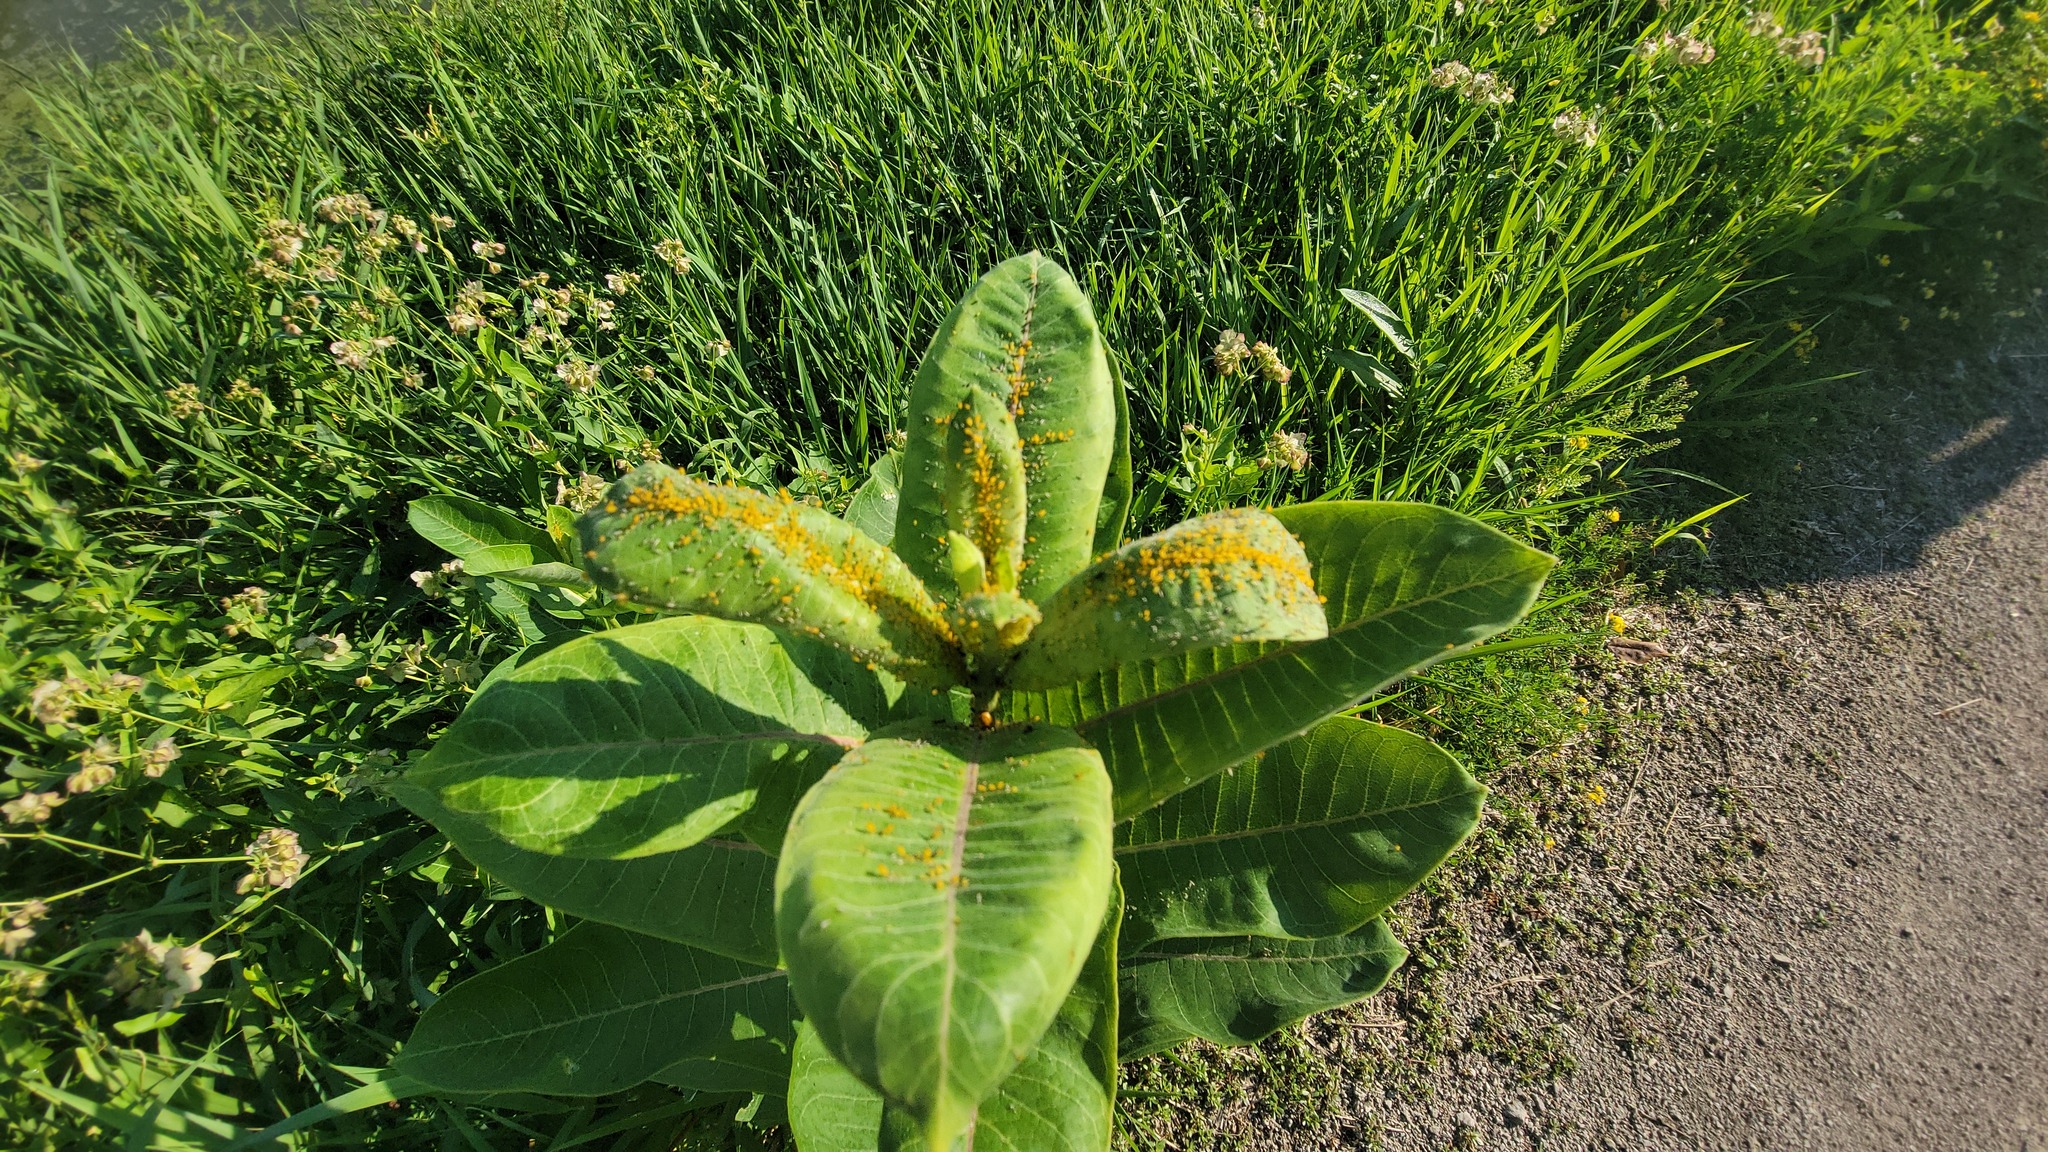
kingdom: Animalia
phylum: Arthropoda
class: Insecta
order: Hemiptera
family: Aphididae
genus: Aphis
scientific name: Aphis nerii
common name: Oleander aphid
